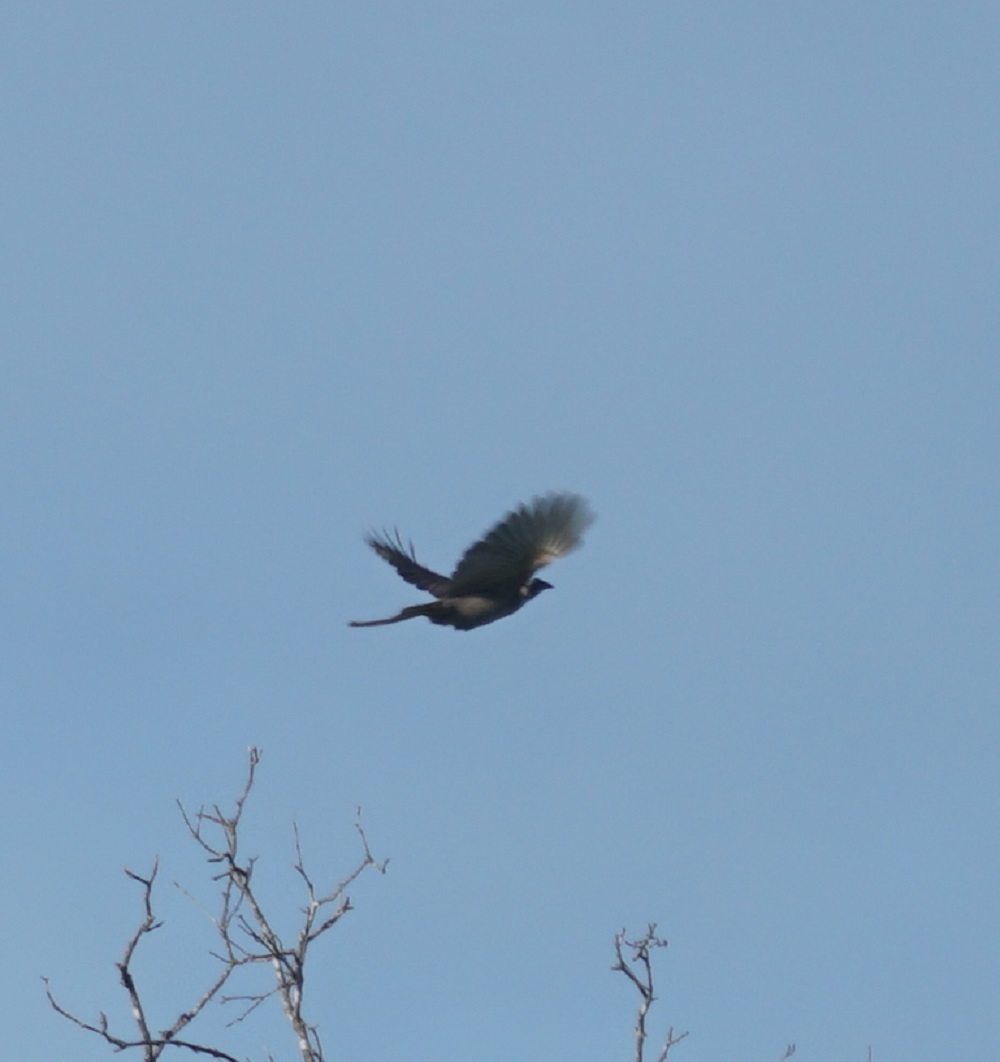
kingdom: Animalia
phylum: Chordata
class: Aves
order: Passeriformes
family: Meliphagidae
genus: Philemon
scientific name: Philemon yorki
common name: Hornbill friarbird
